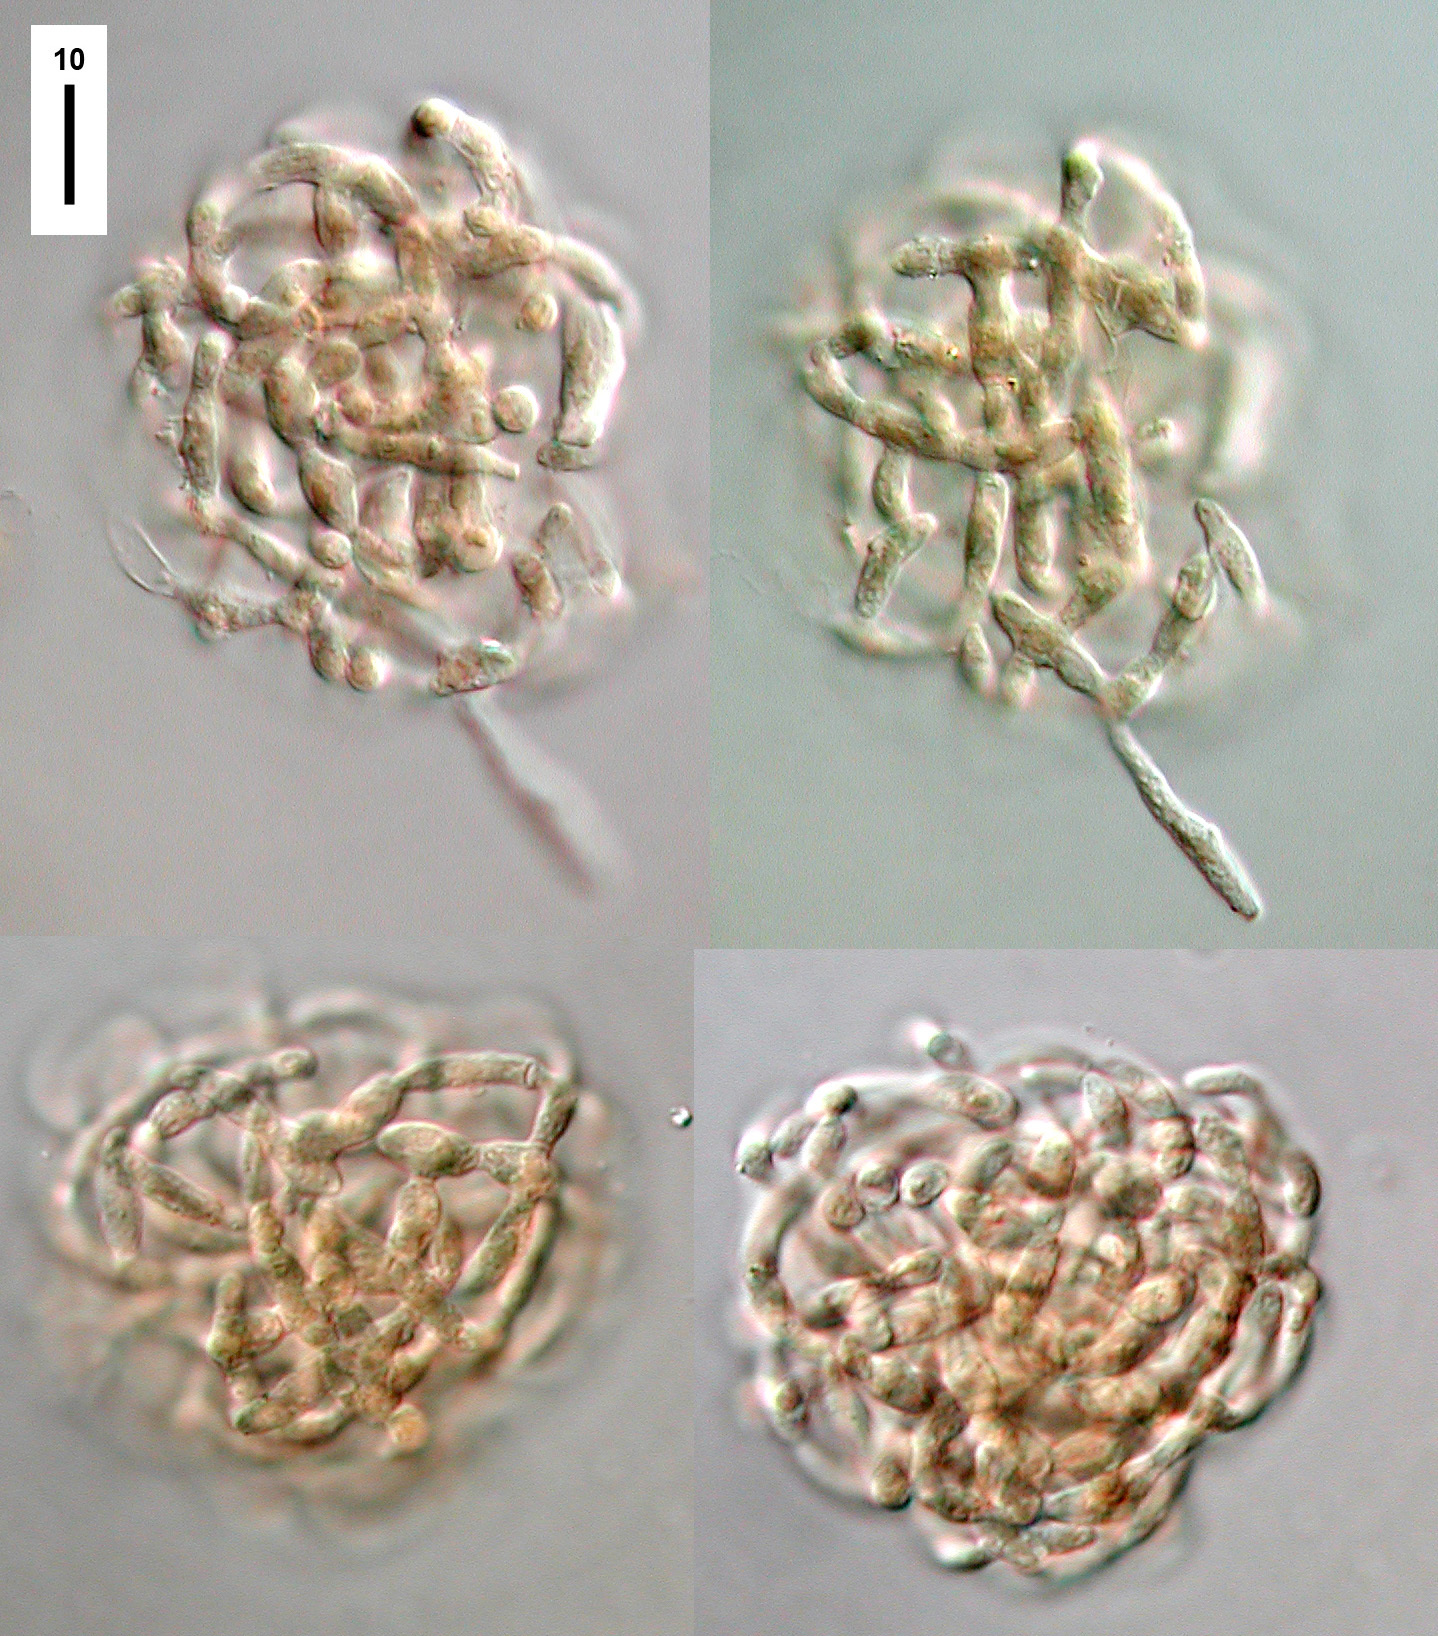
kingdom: Fungi
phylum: Ascomycota
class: Leotiomycetes
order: Helotiales
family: Tricladiaceae
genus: Spirosphaera
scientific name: Spirosphaera beverwijkiana
